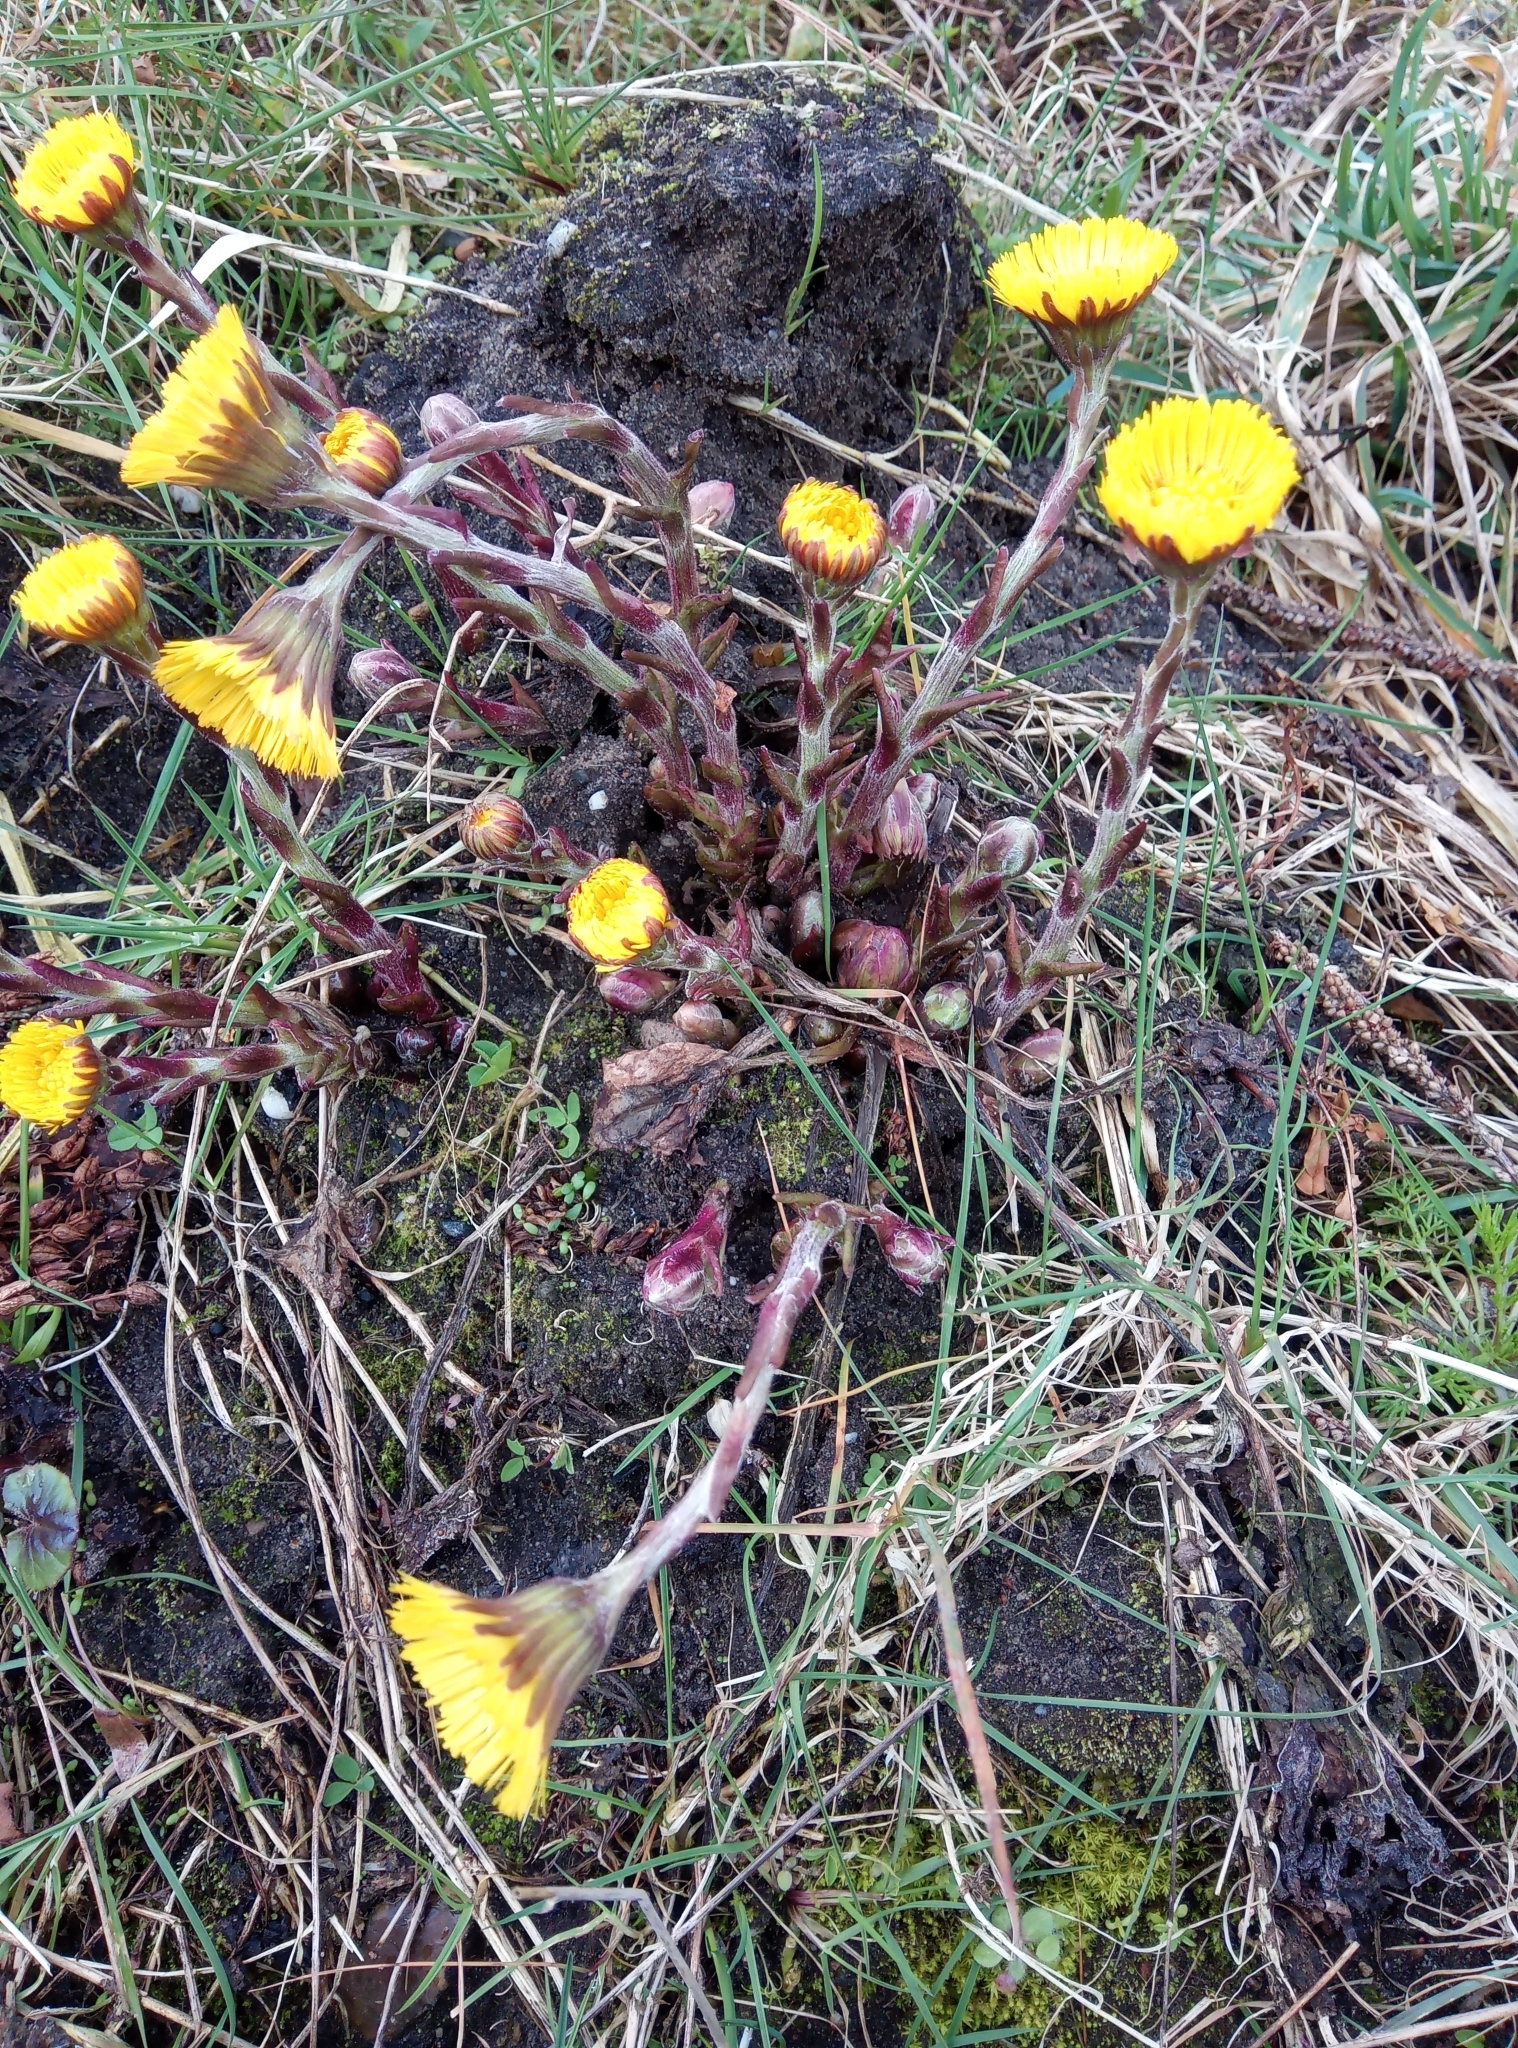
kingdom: Plantae
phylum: Tracheophyta
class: Magnoliopsida
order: Asterales
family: Asteraceae
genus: Tussilago
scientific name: Tussilago farfara
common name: Coltsfoot
